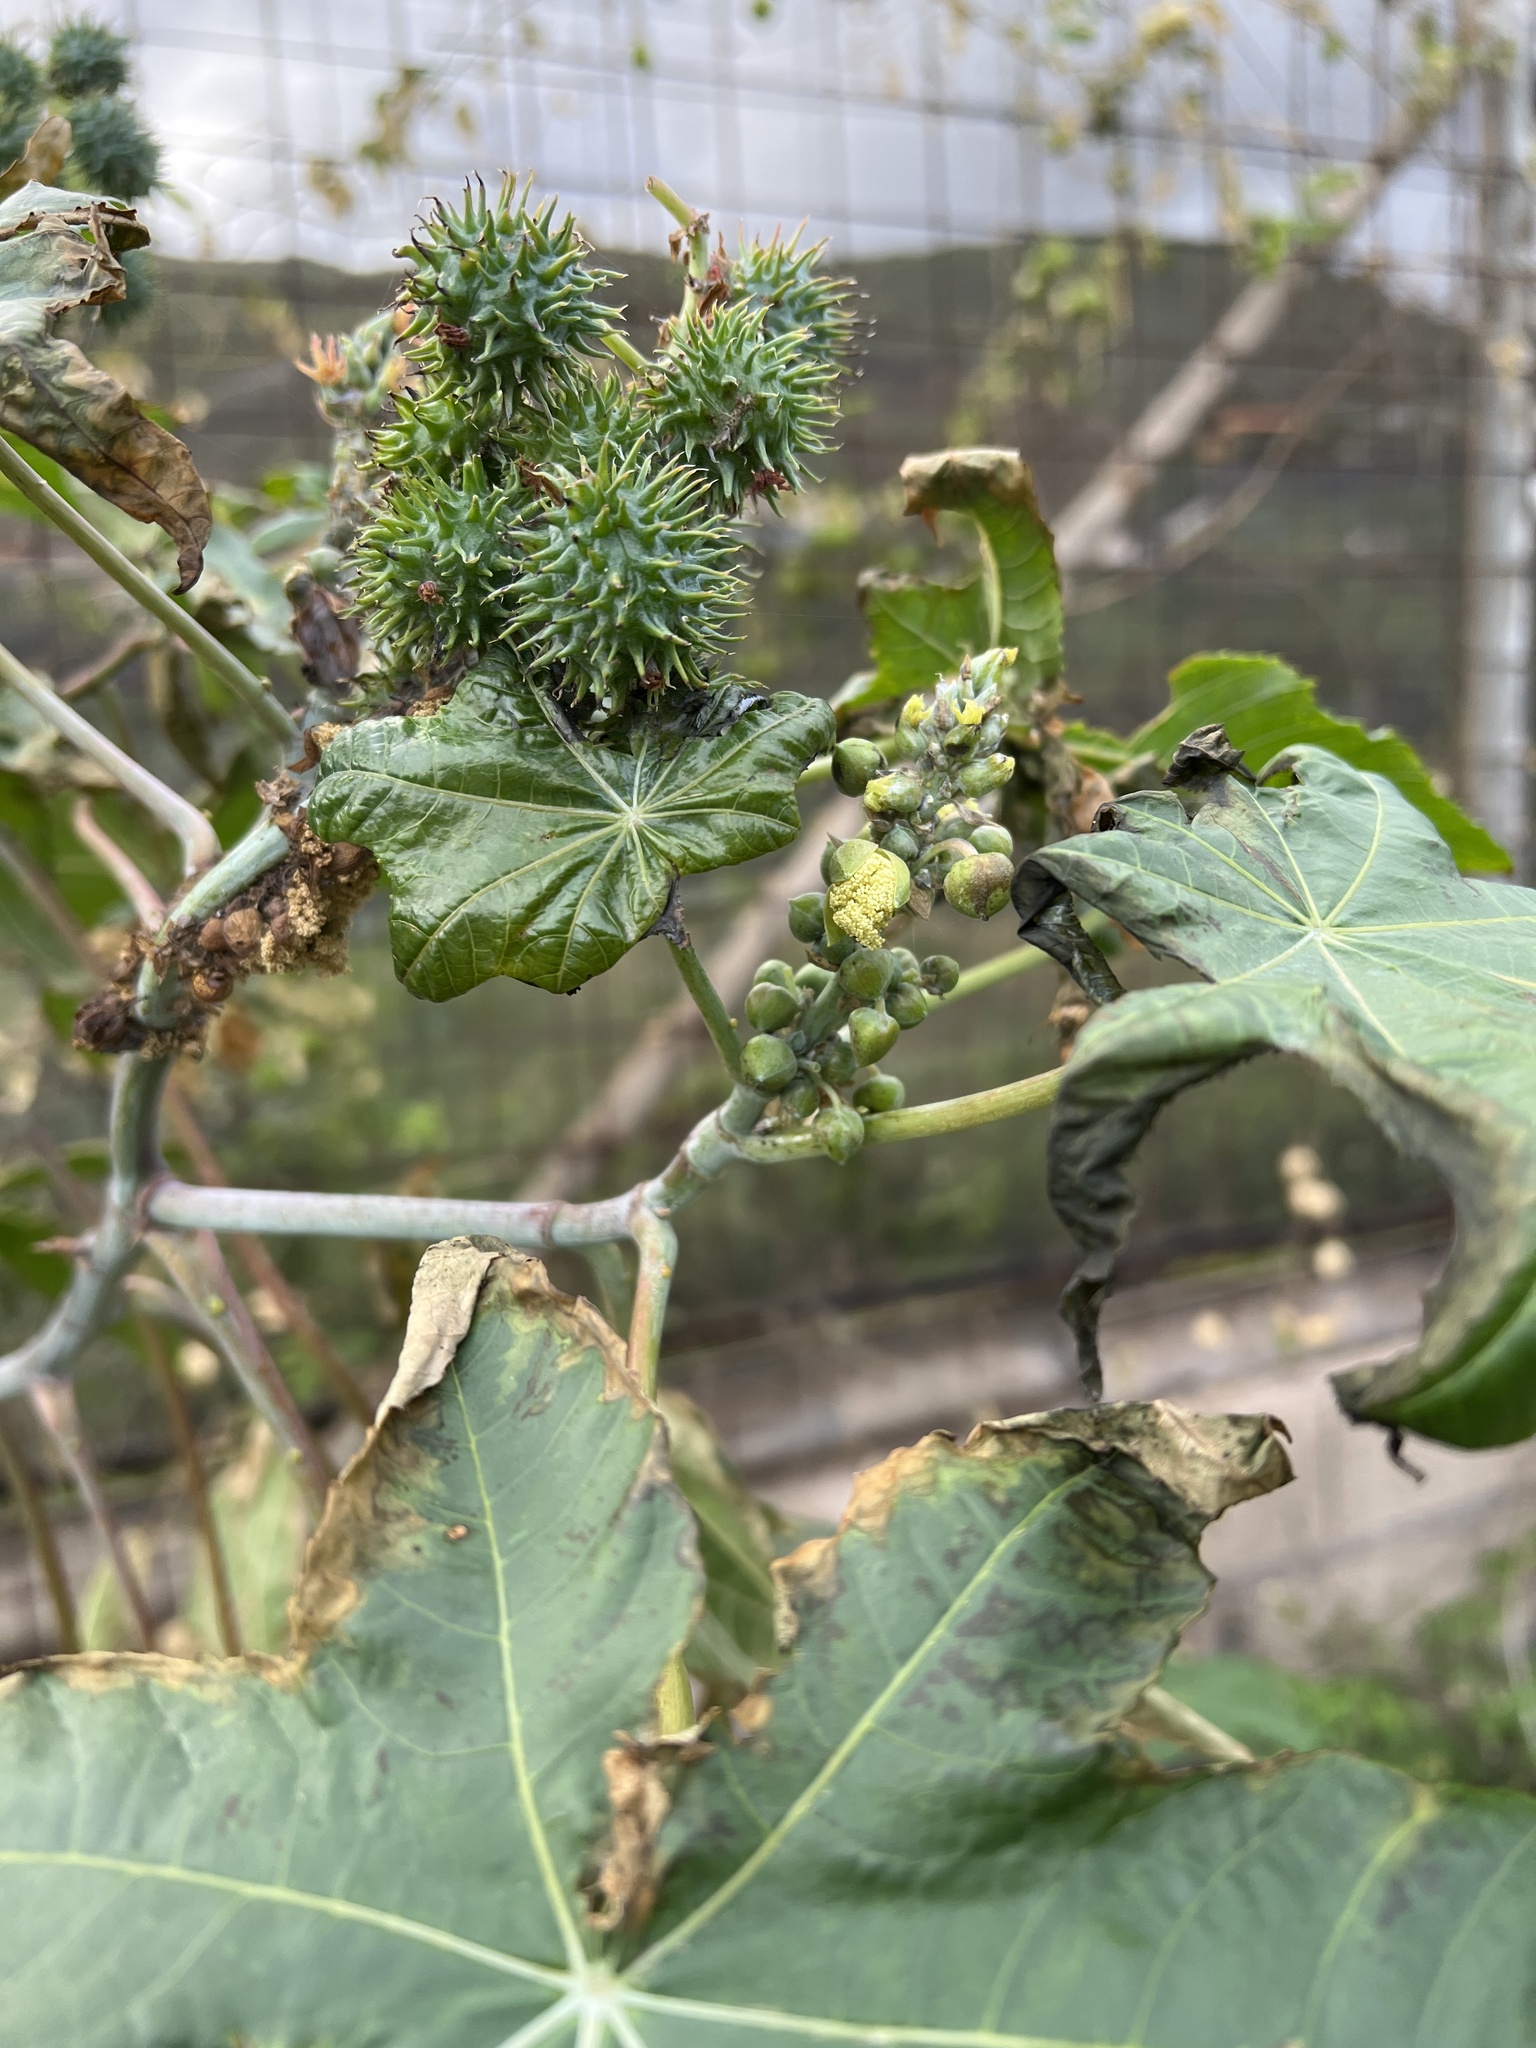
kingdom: Plantae
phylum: Tracheophyta
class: Magnoliopsida
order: Malpighiales
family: Euphorbiaceae
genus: Ricinus
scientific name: Ricinus communis
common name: Castor-oil-plant
